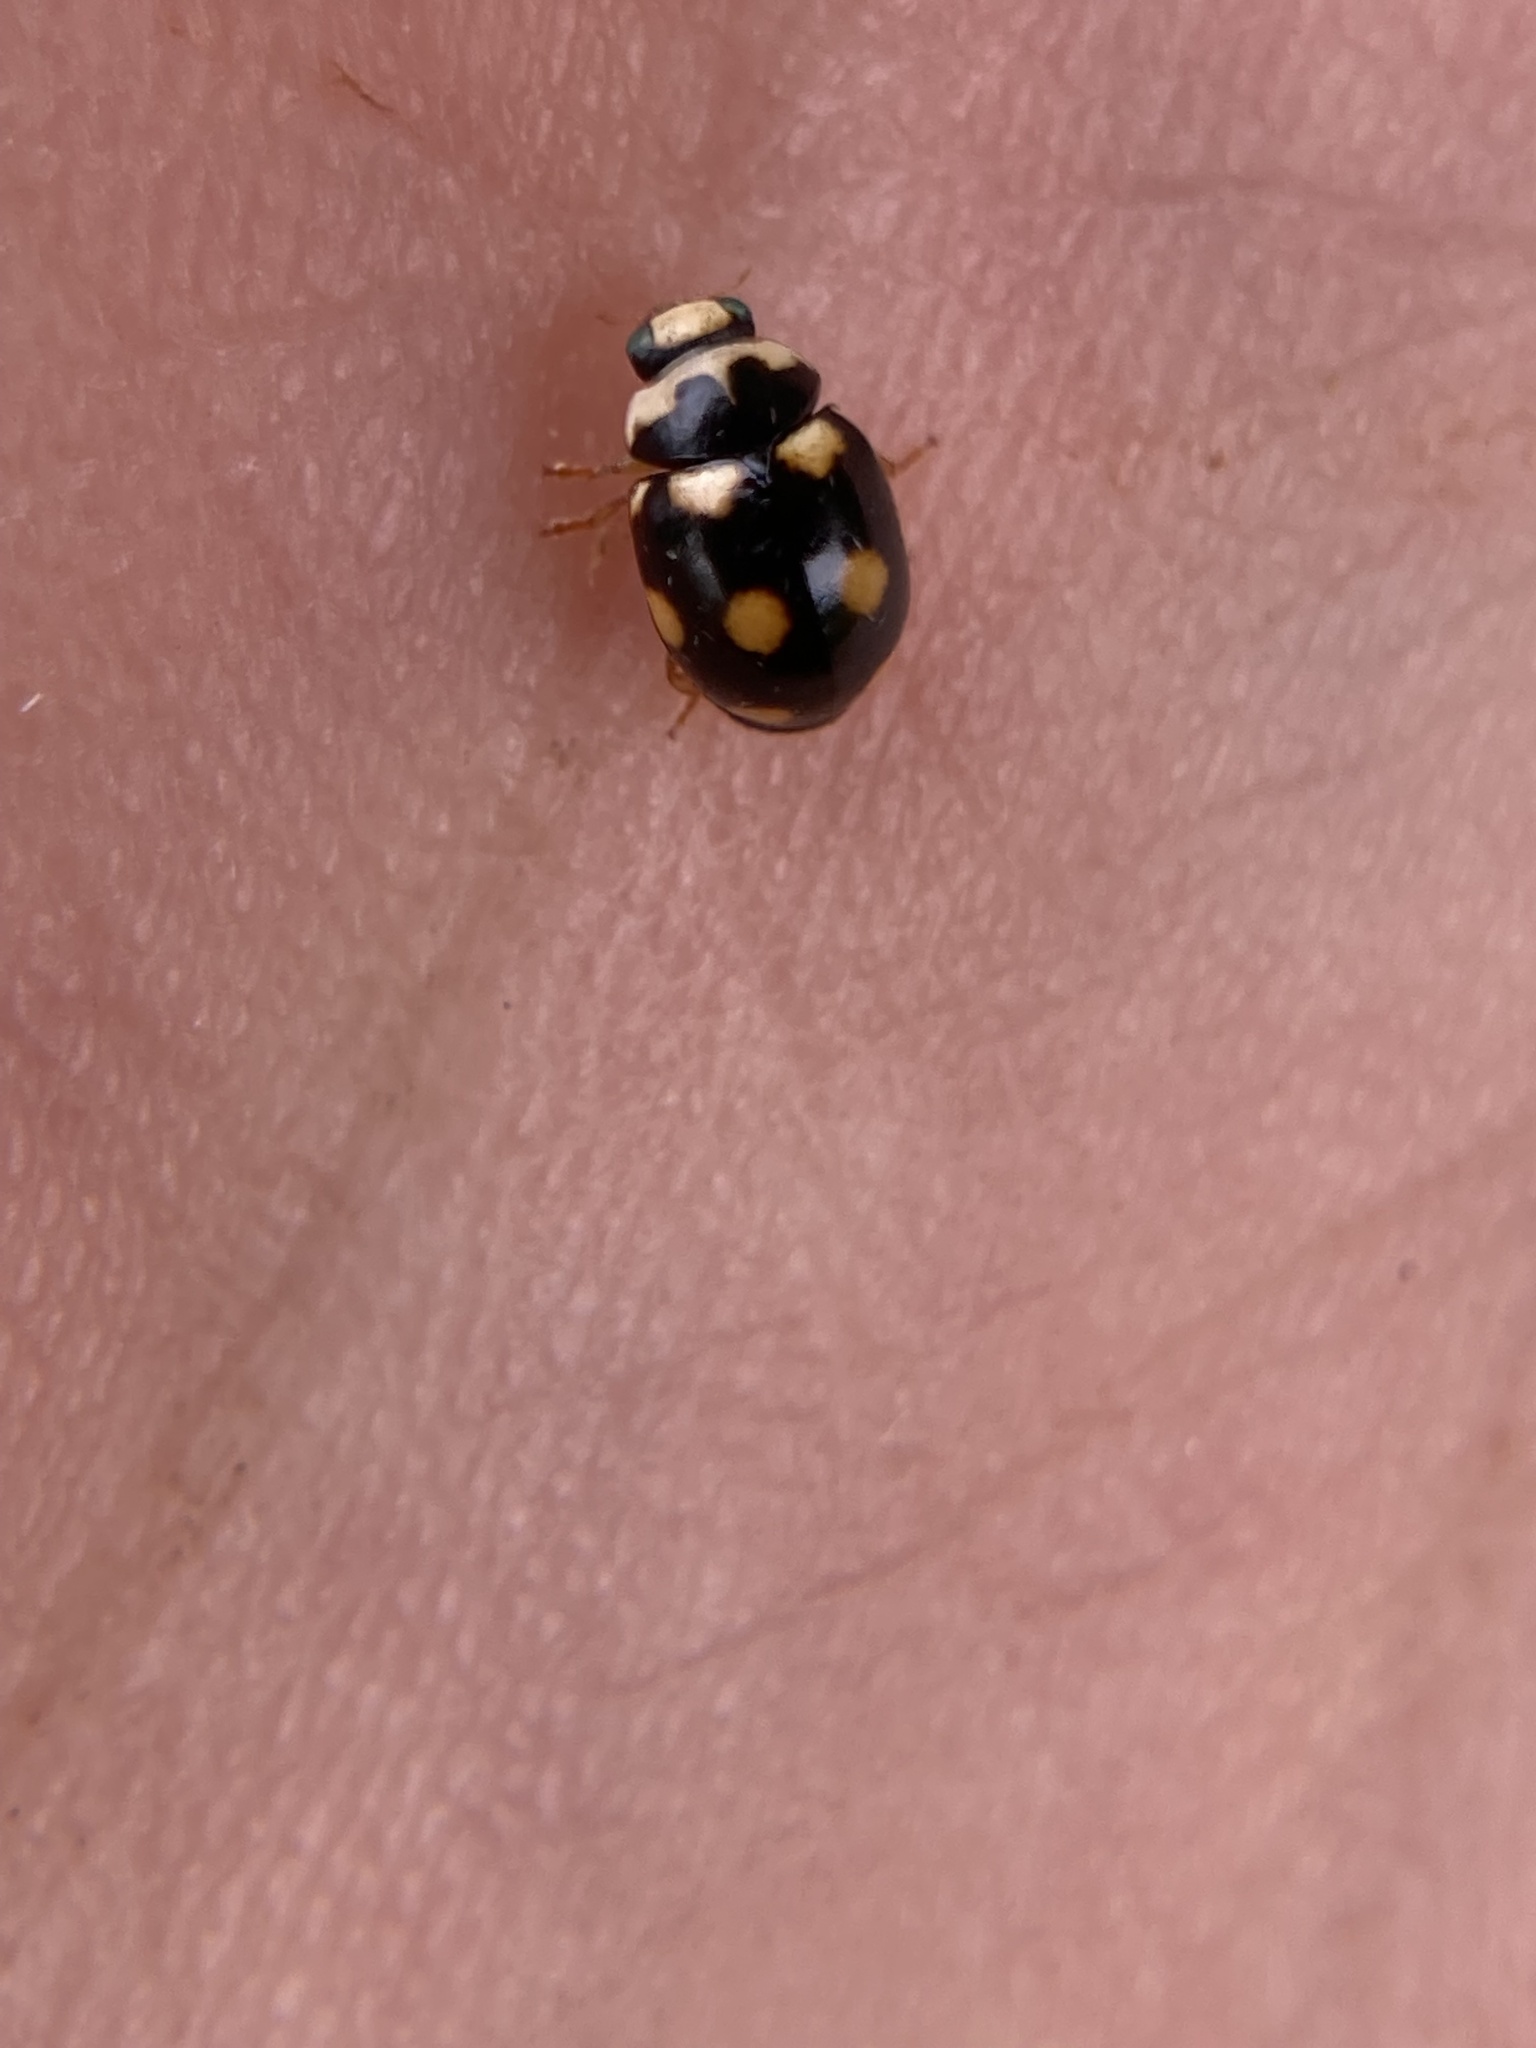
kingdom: Animalia
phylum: Arthropoda
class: Insecta
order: Coleoptera
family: Coccinellidae
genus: Brachiacantha
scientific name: Brachiacantha ursina
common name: Ursine spurleg lady beetle
